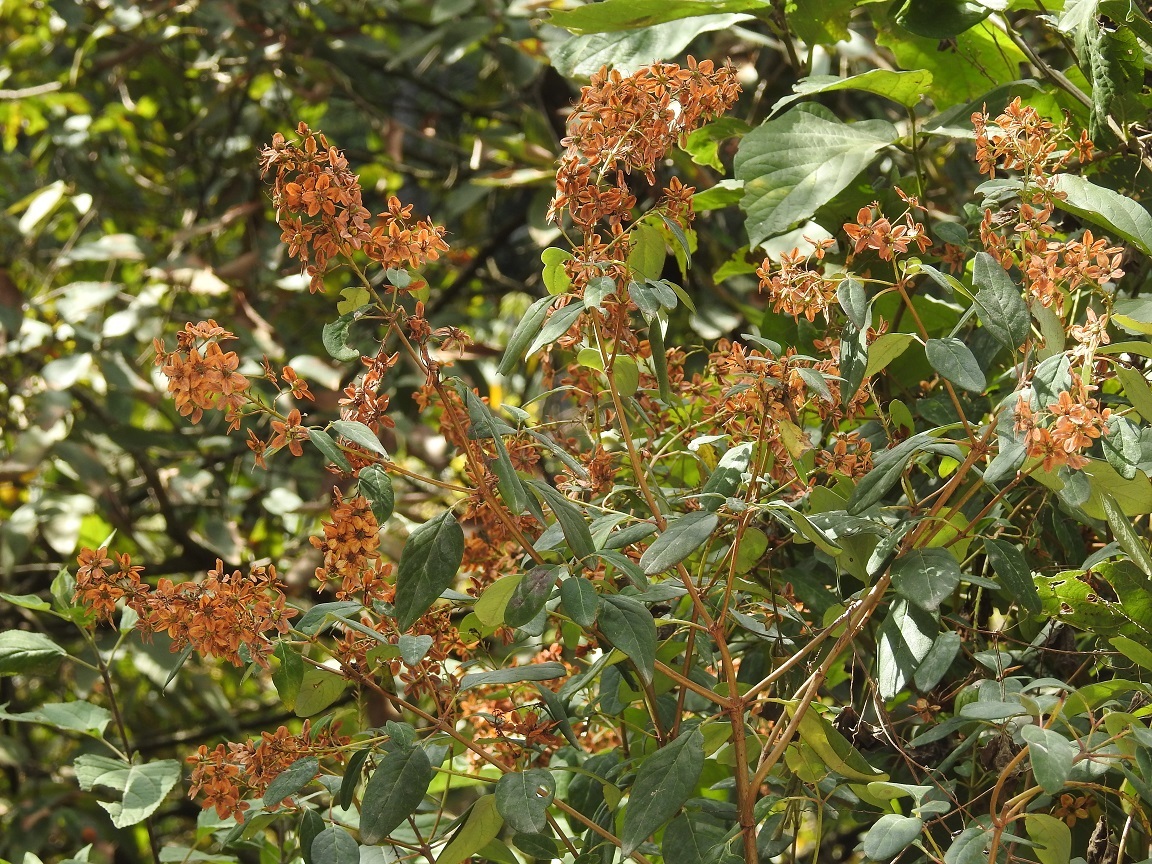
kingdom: Plantae
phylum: Tracheophyta
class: Magnoliopsida
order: Malpighiales
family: Malpighiaceae
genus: Galphimia
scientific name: Galphimia speciosa
